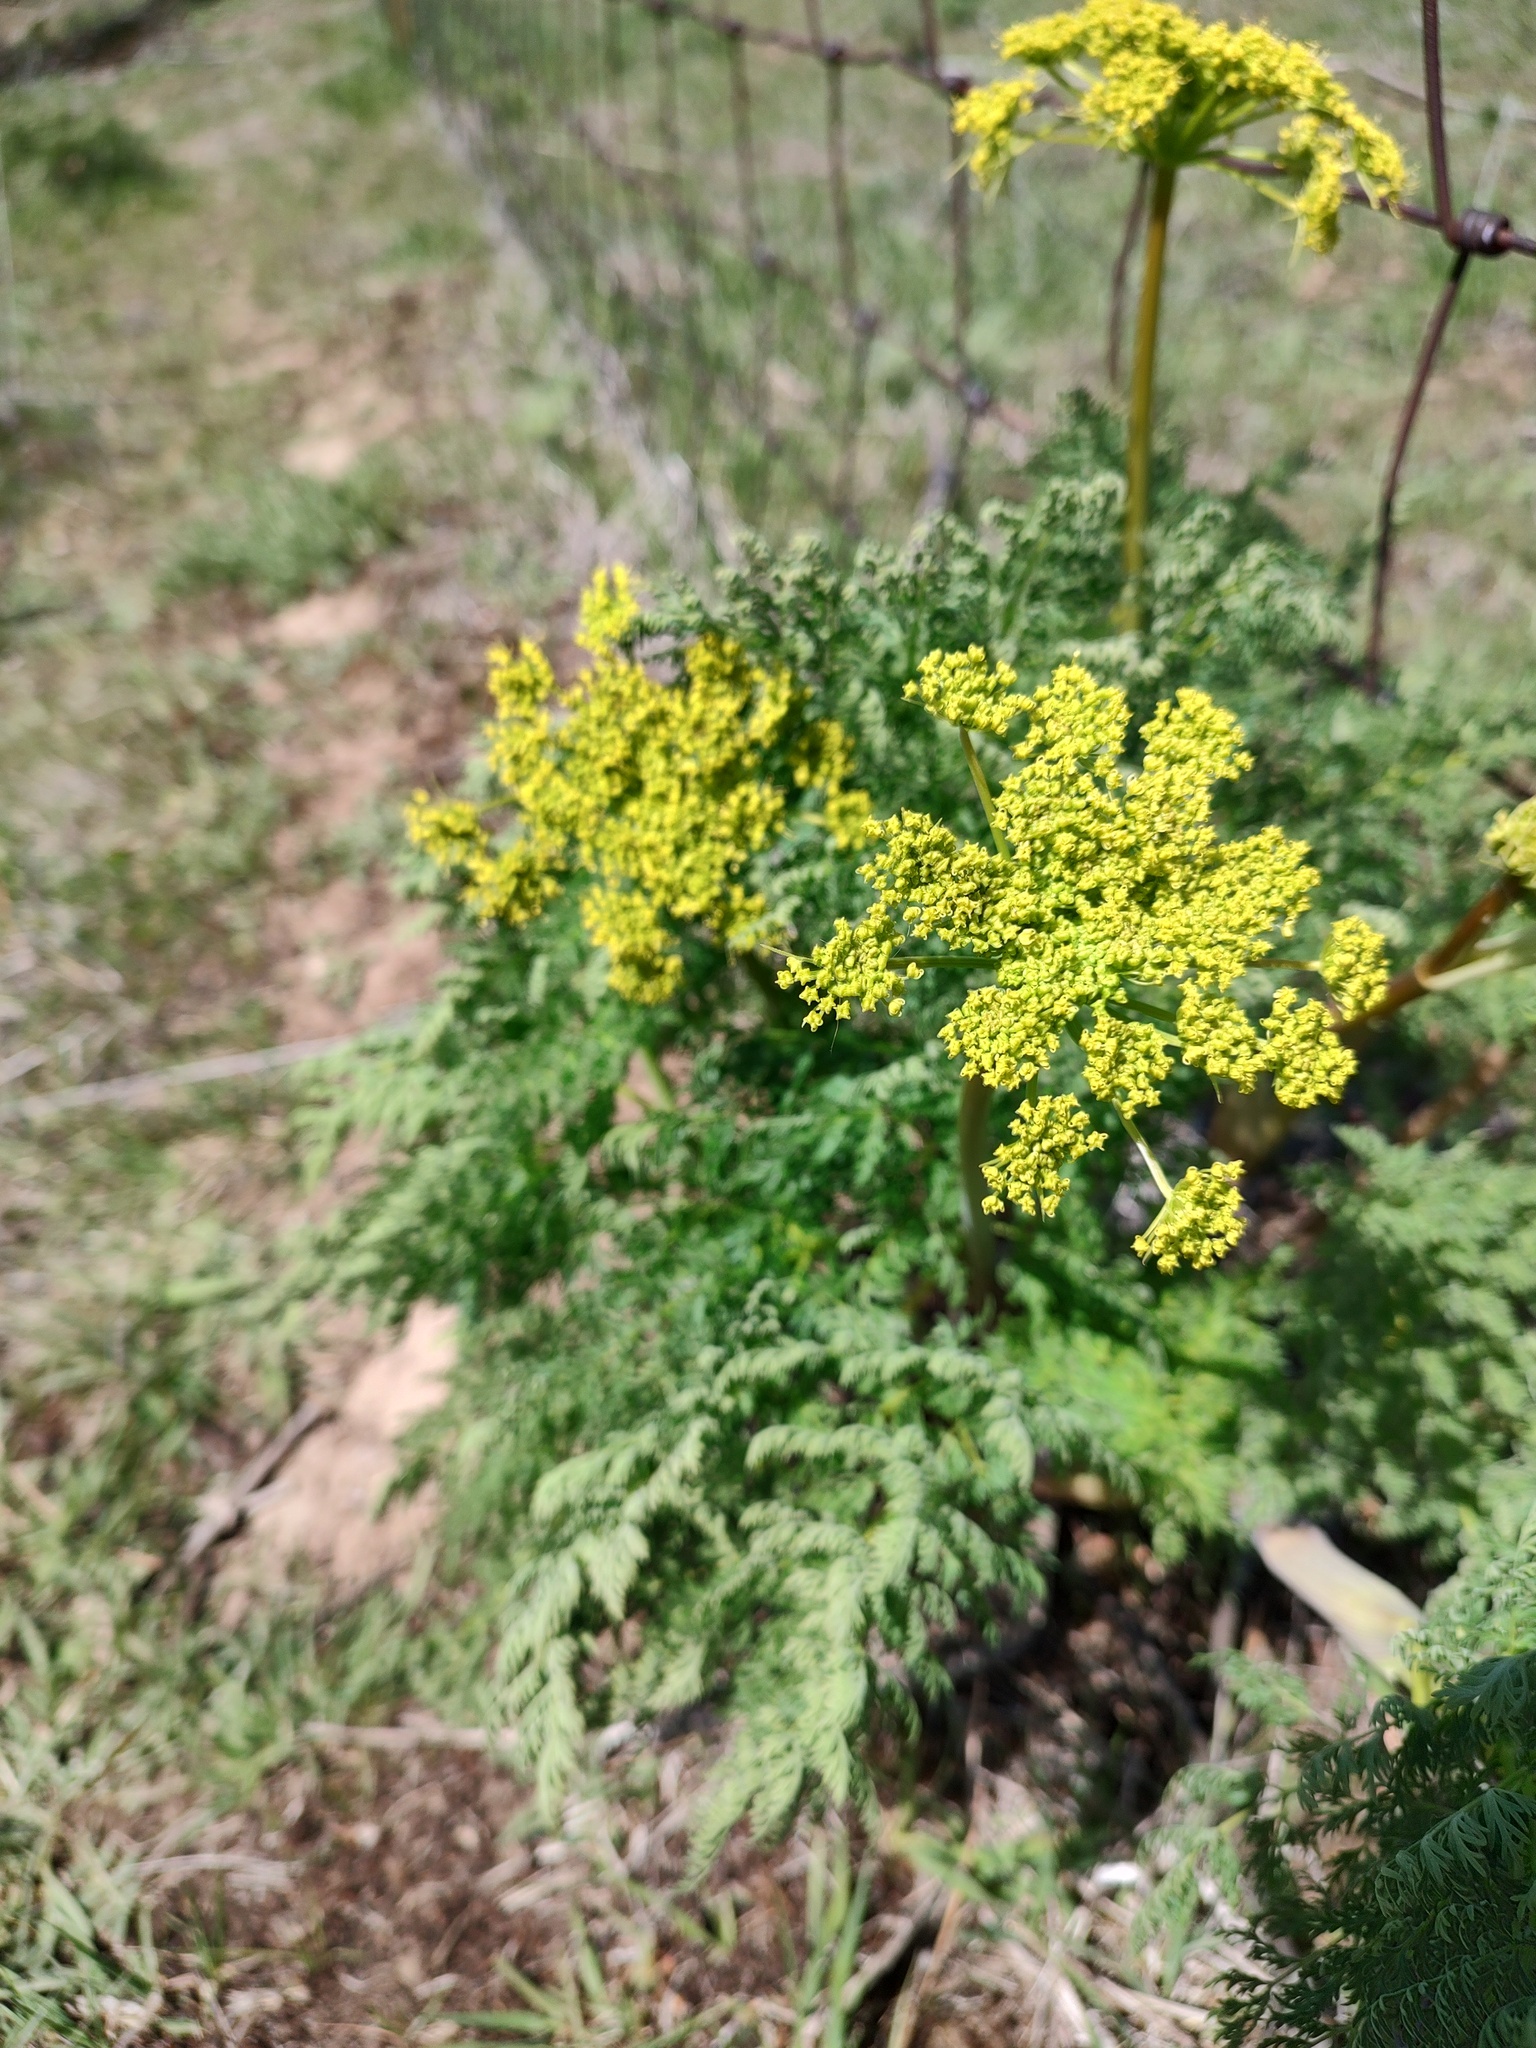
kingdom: Plantae
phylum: Tracheophyta
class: Magnoliopsida
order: Apiales
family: Apiaceae
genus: Lomatium
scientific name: Lomatium multifidum
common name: Carrot-leaved biscuitroot
